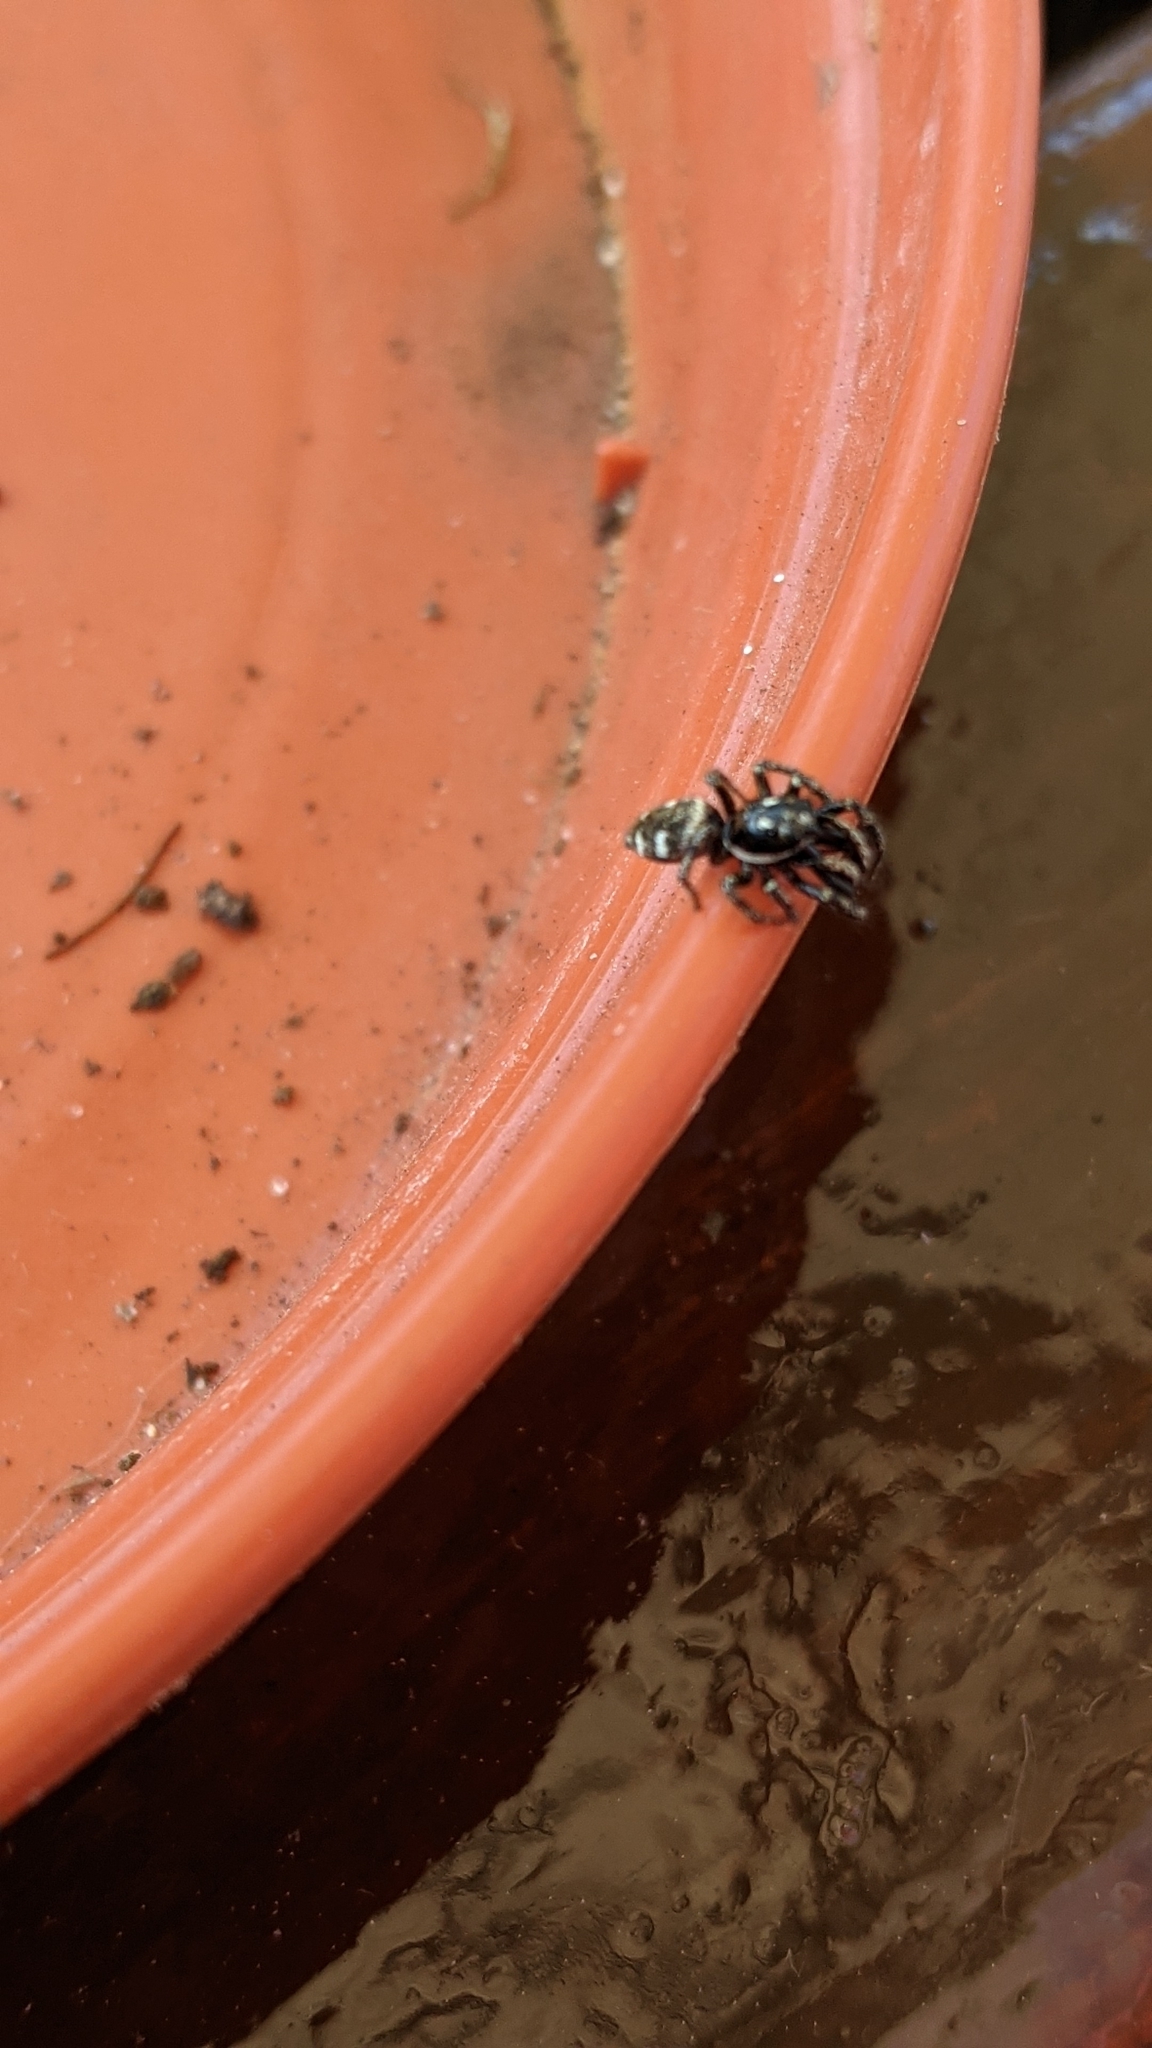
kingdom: Animalia
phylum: Arthropoda
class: Arachnida
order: Araneae
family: Salticidae
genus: Salticus
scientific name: Salticus scenicus
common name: Zebra jumper
